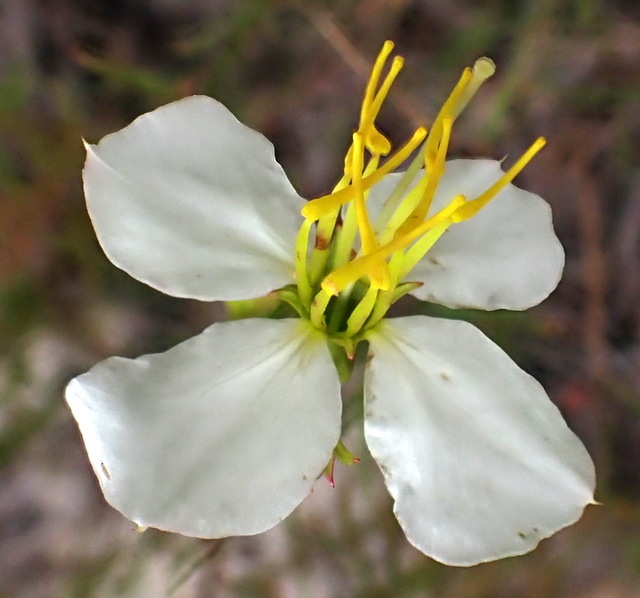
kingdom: Plantae
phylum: Tracheophyta
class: Magnoliopsida
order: Myrtales
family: Melastomataceae
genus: Rhexia
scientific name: Rhexia mariana
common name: Dull meadow-pitcher
